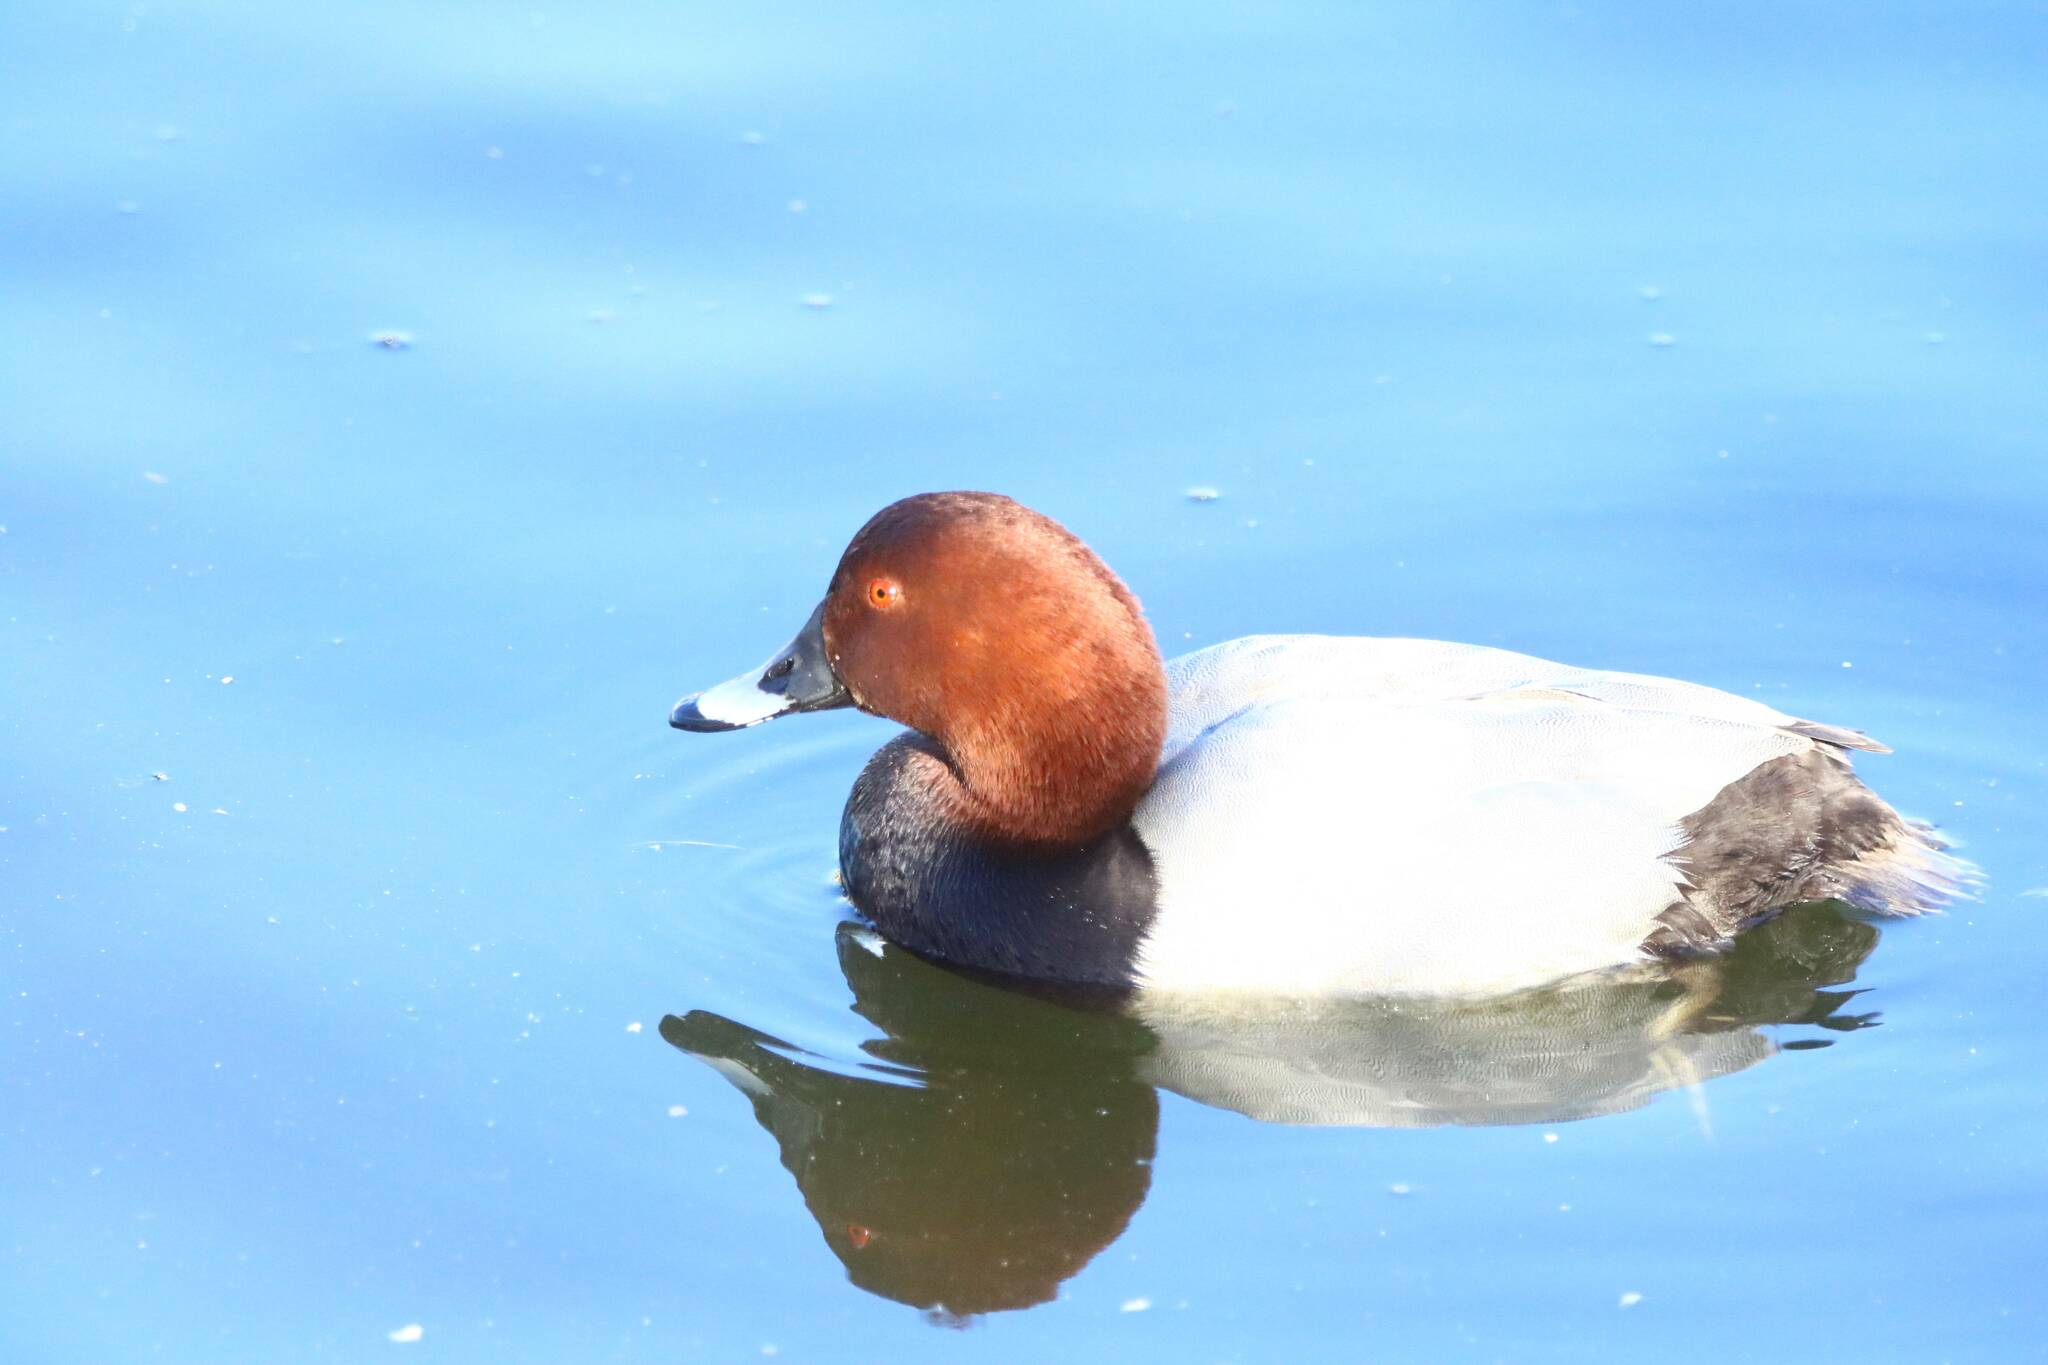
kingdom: Animalia
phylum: Chordata
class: Aves
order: Anseriformes
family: Anatidae
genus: Aythya
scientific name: Aythya ferina
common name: Common pochard
